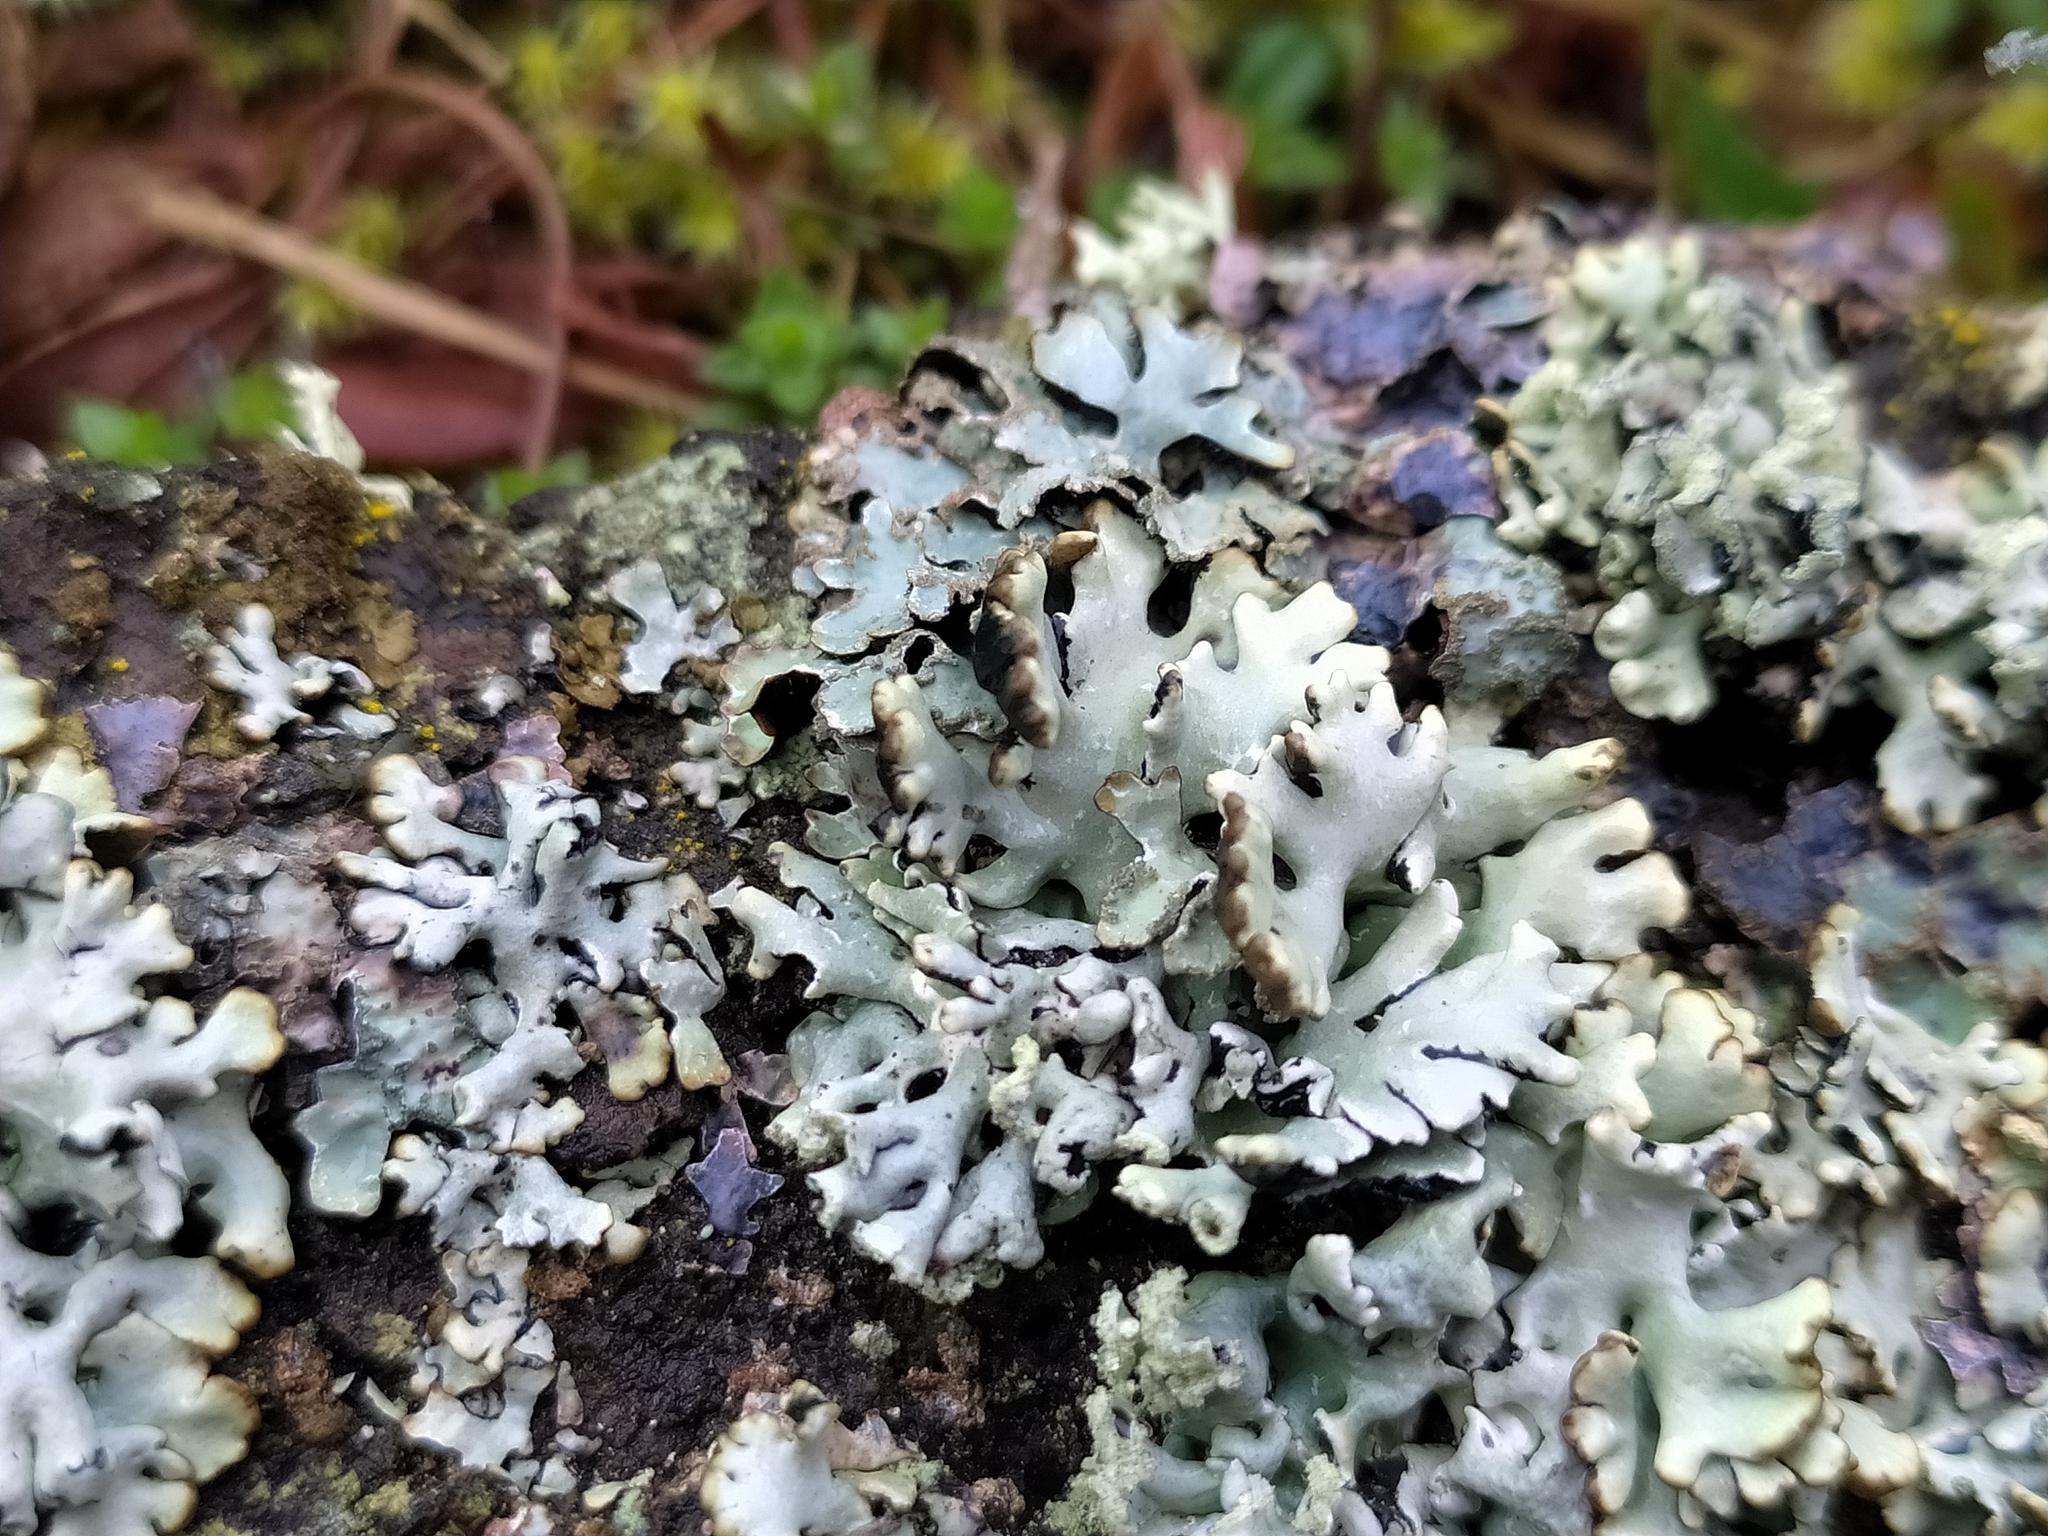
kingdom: Fungi
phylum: Ascomycota
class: Lecanoromycetes
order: Lecanorales
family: Parmeliaceae
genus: Hypogymnia
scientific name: Hypogymnia physodes
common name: Dark crottle
